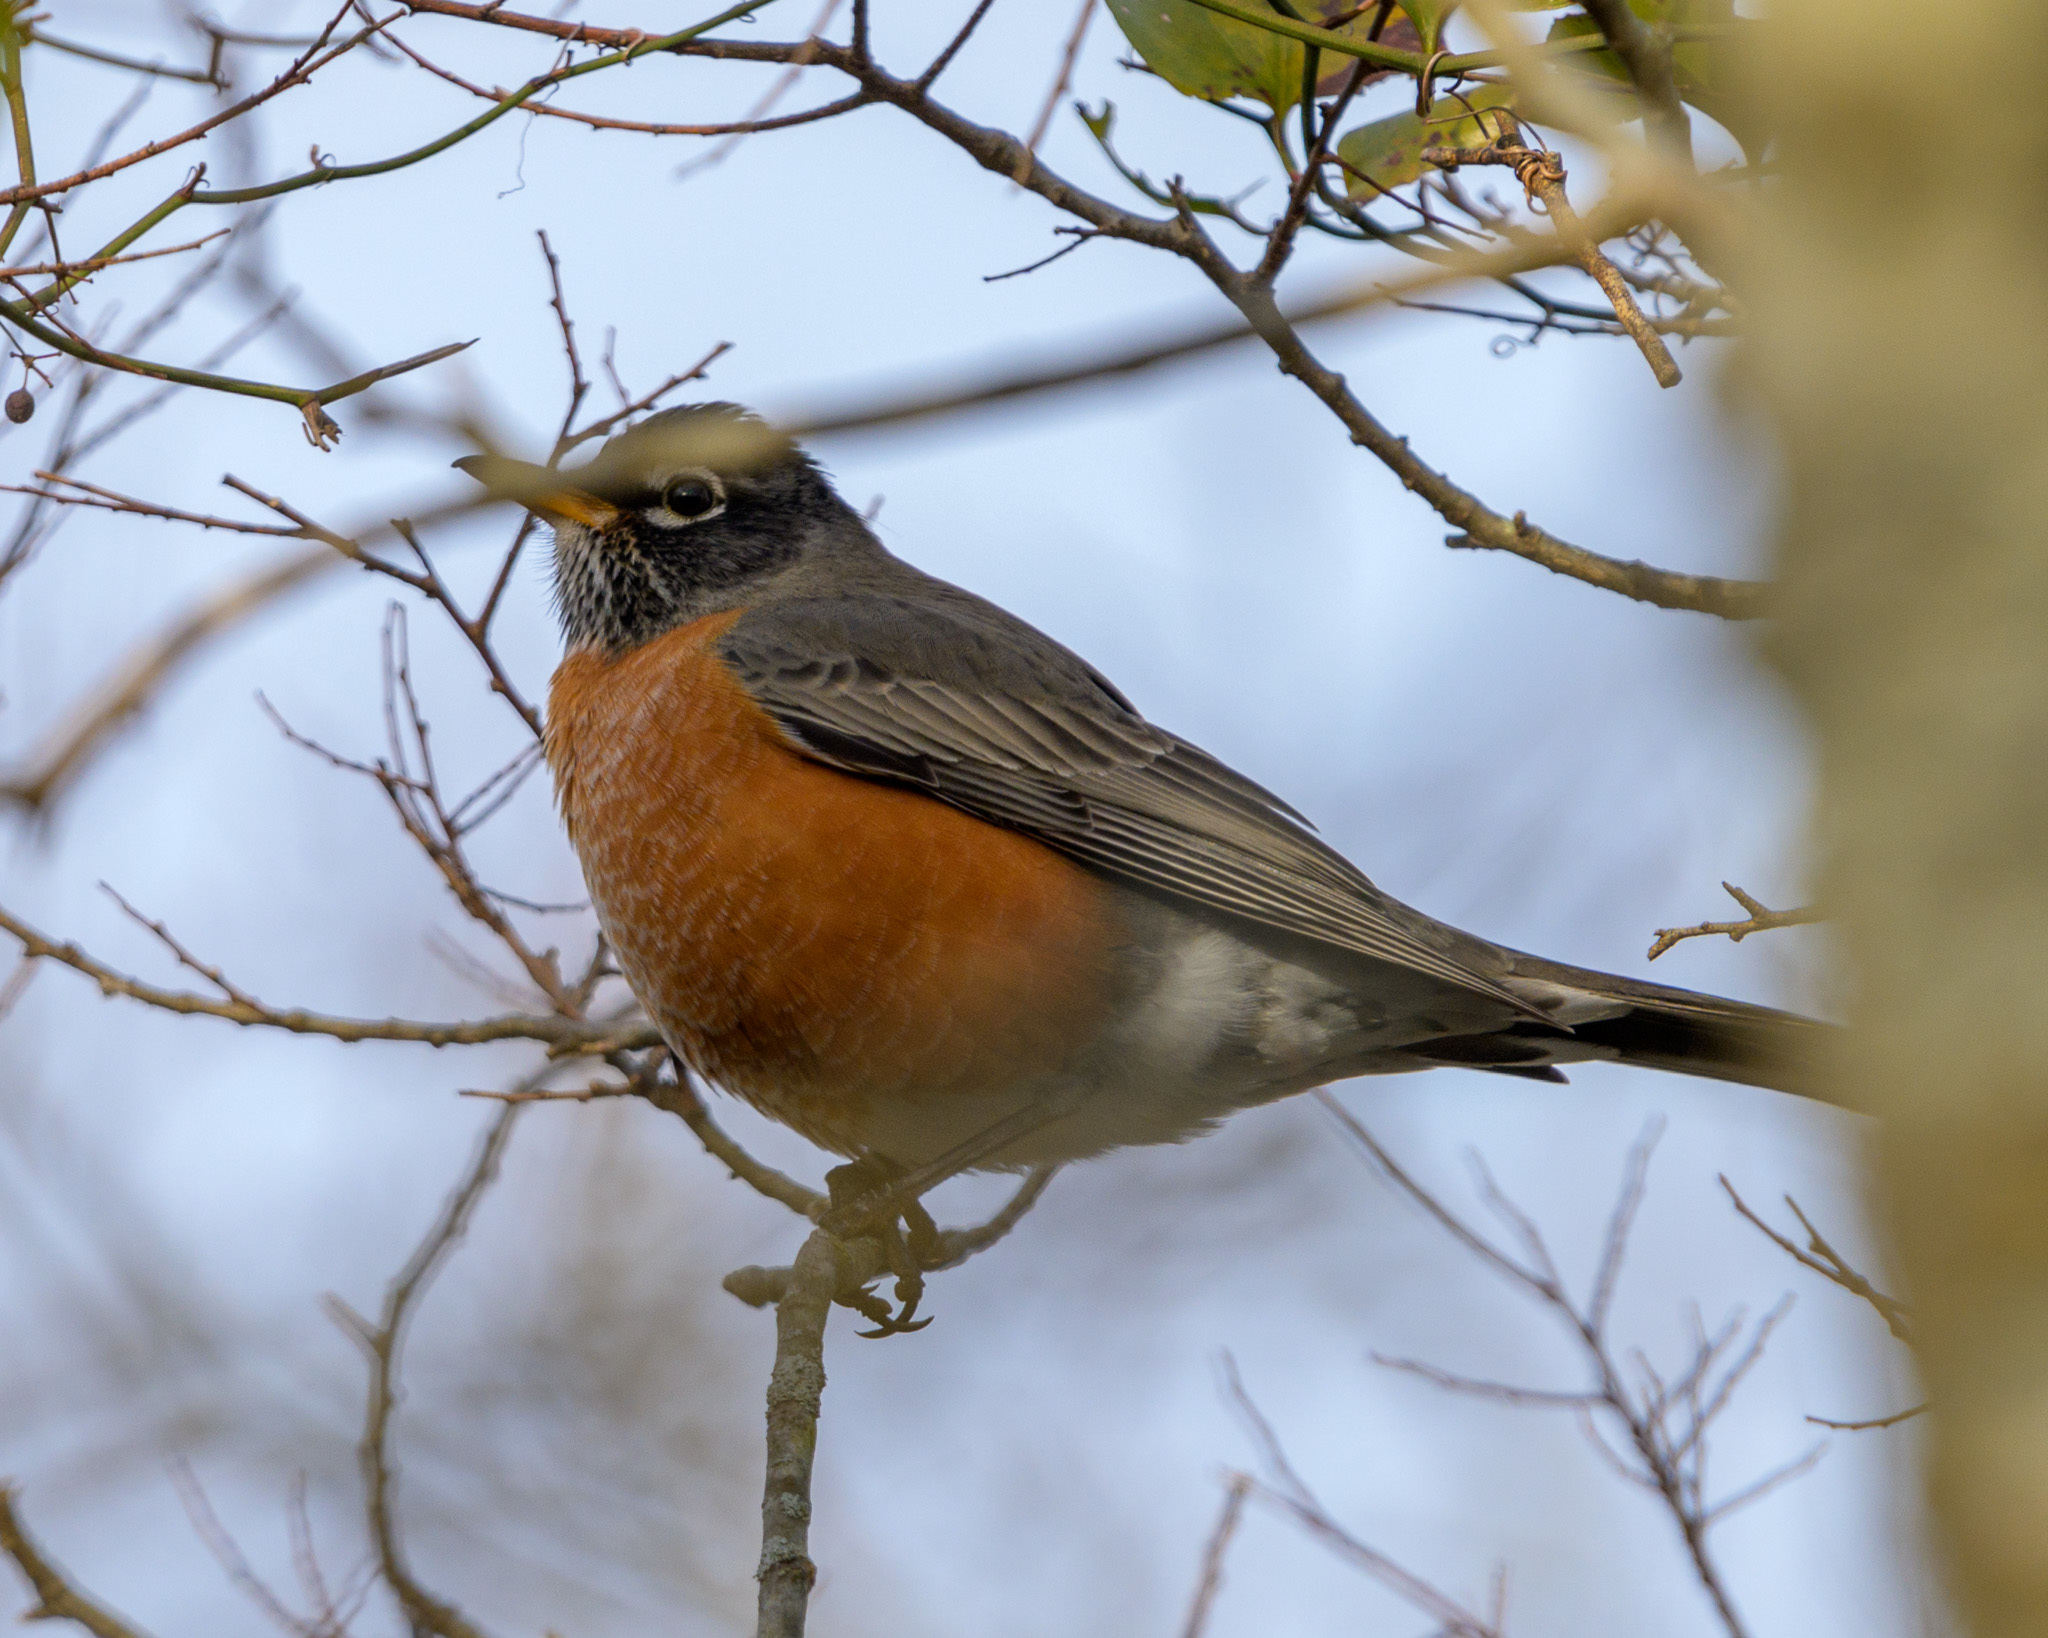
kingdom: Animalia
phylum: Chordata
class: Aves
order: Passeriformes
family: Turdidae
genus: Turdus
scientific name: Turdus migratorius
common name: American robin
